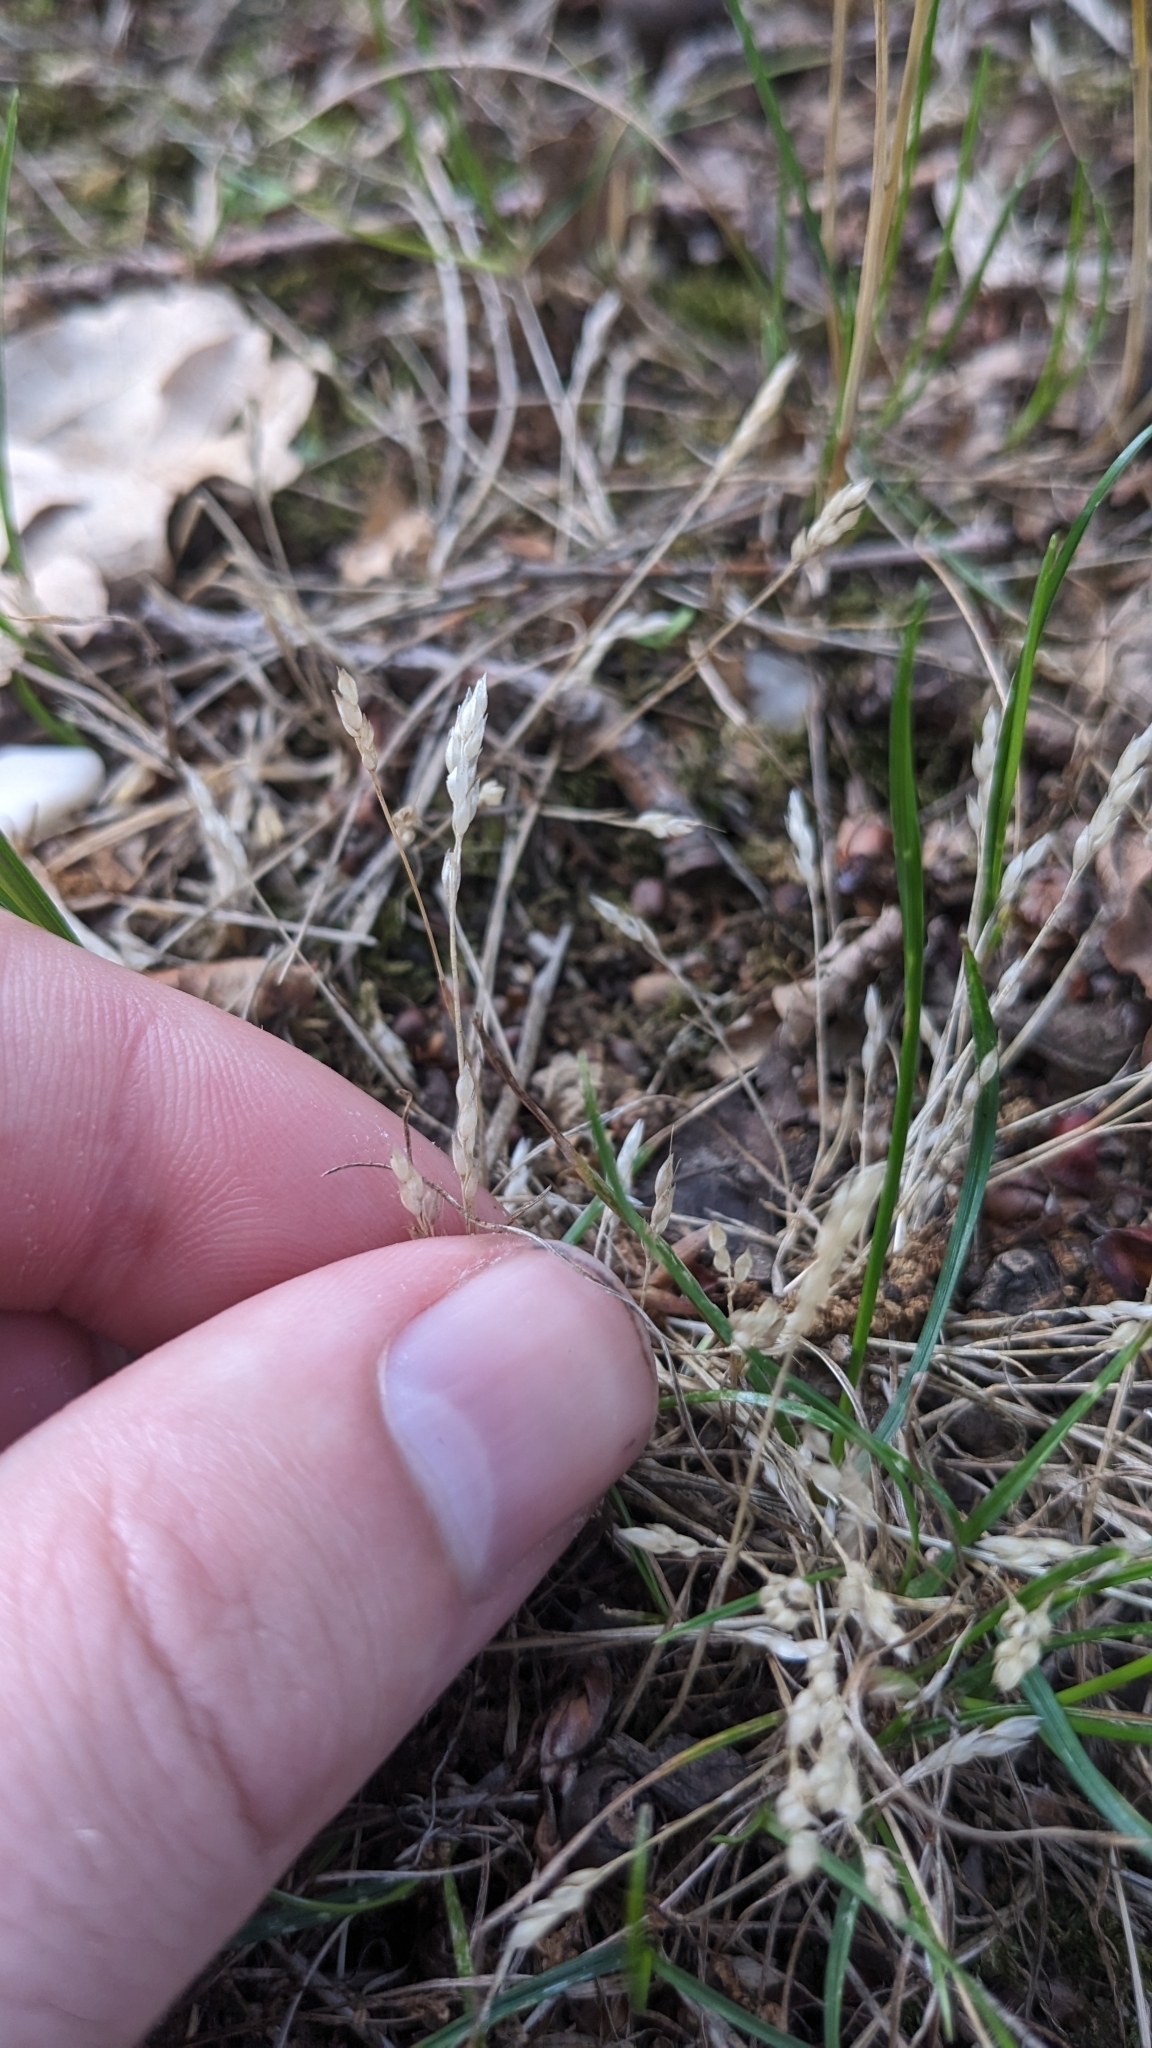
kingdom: Plantae
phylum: Tracheophyta
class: Liliopsida
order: Poales
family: Poaceae
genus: Aira
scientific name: Aira praecox
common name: Early hair-grass
